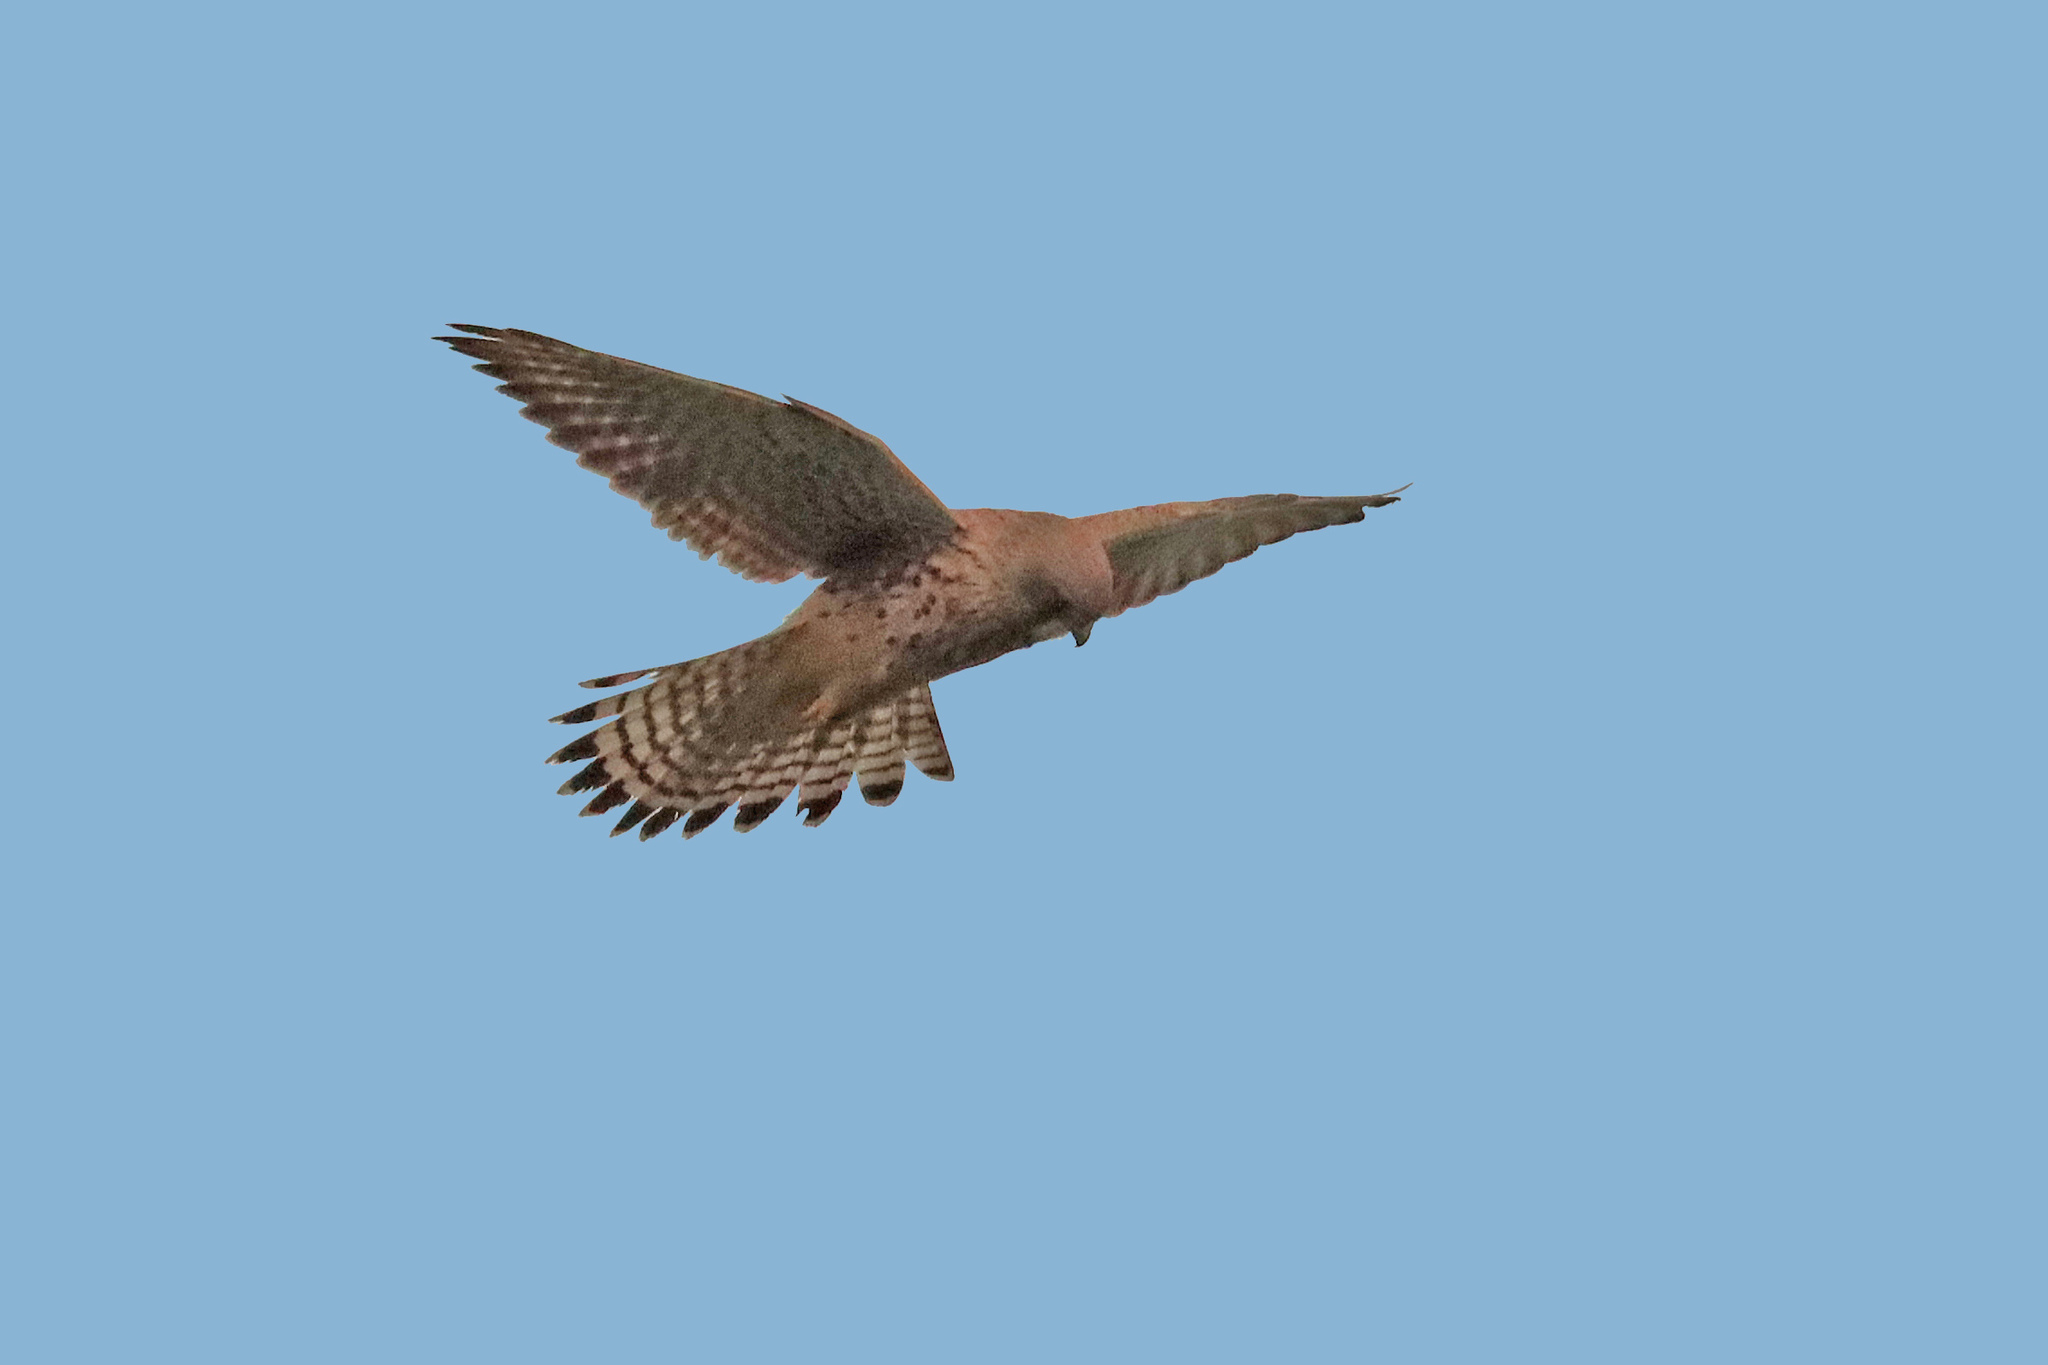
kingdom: Animalia
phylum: Chordata
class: Aves
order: Falconiformes
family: Falconidae
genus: Falco
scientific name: Falco tinnunculus
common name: Common kestrel
